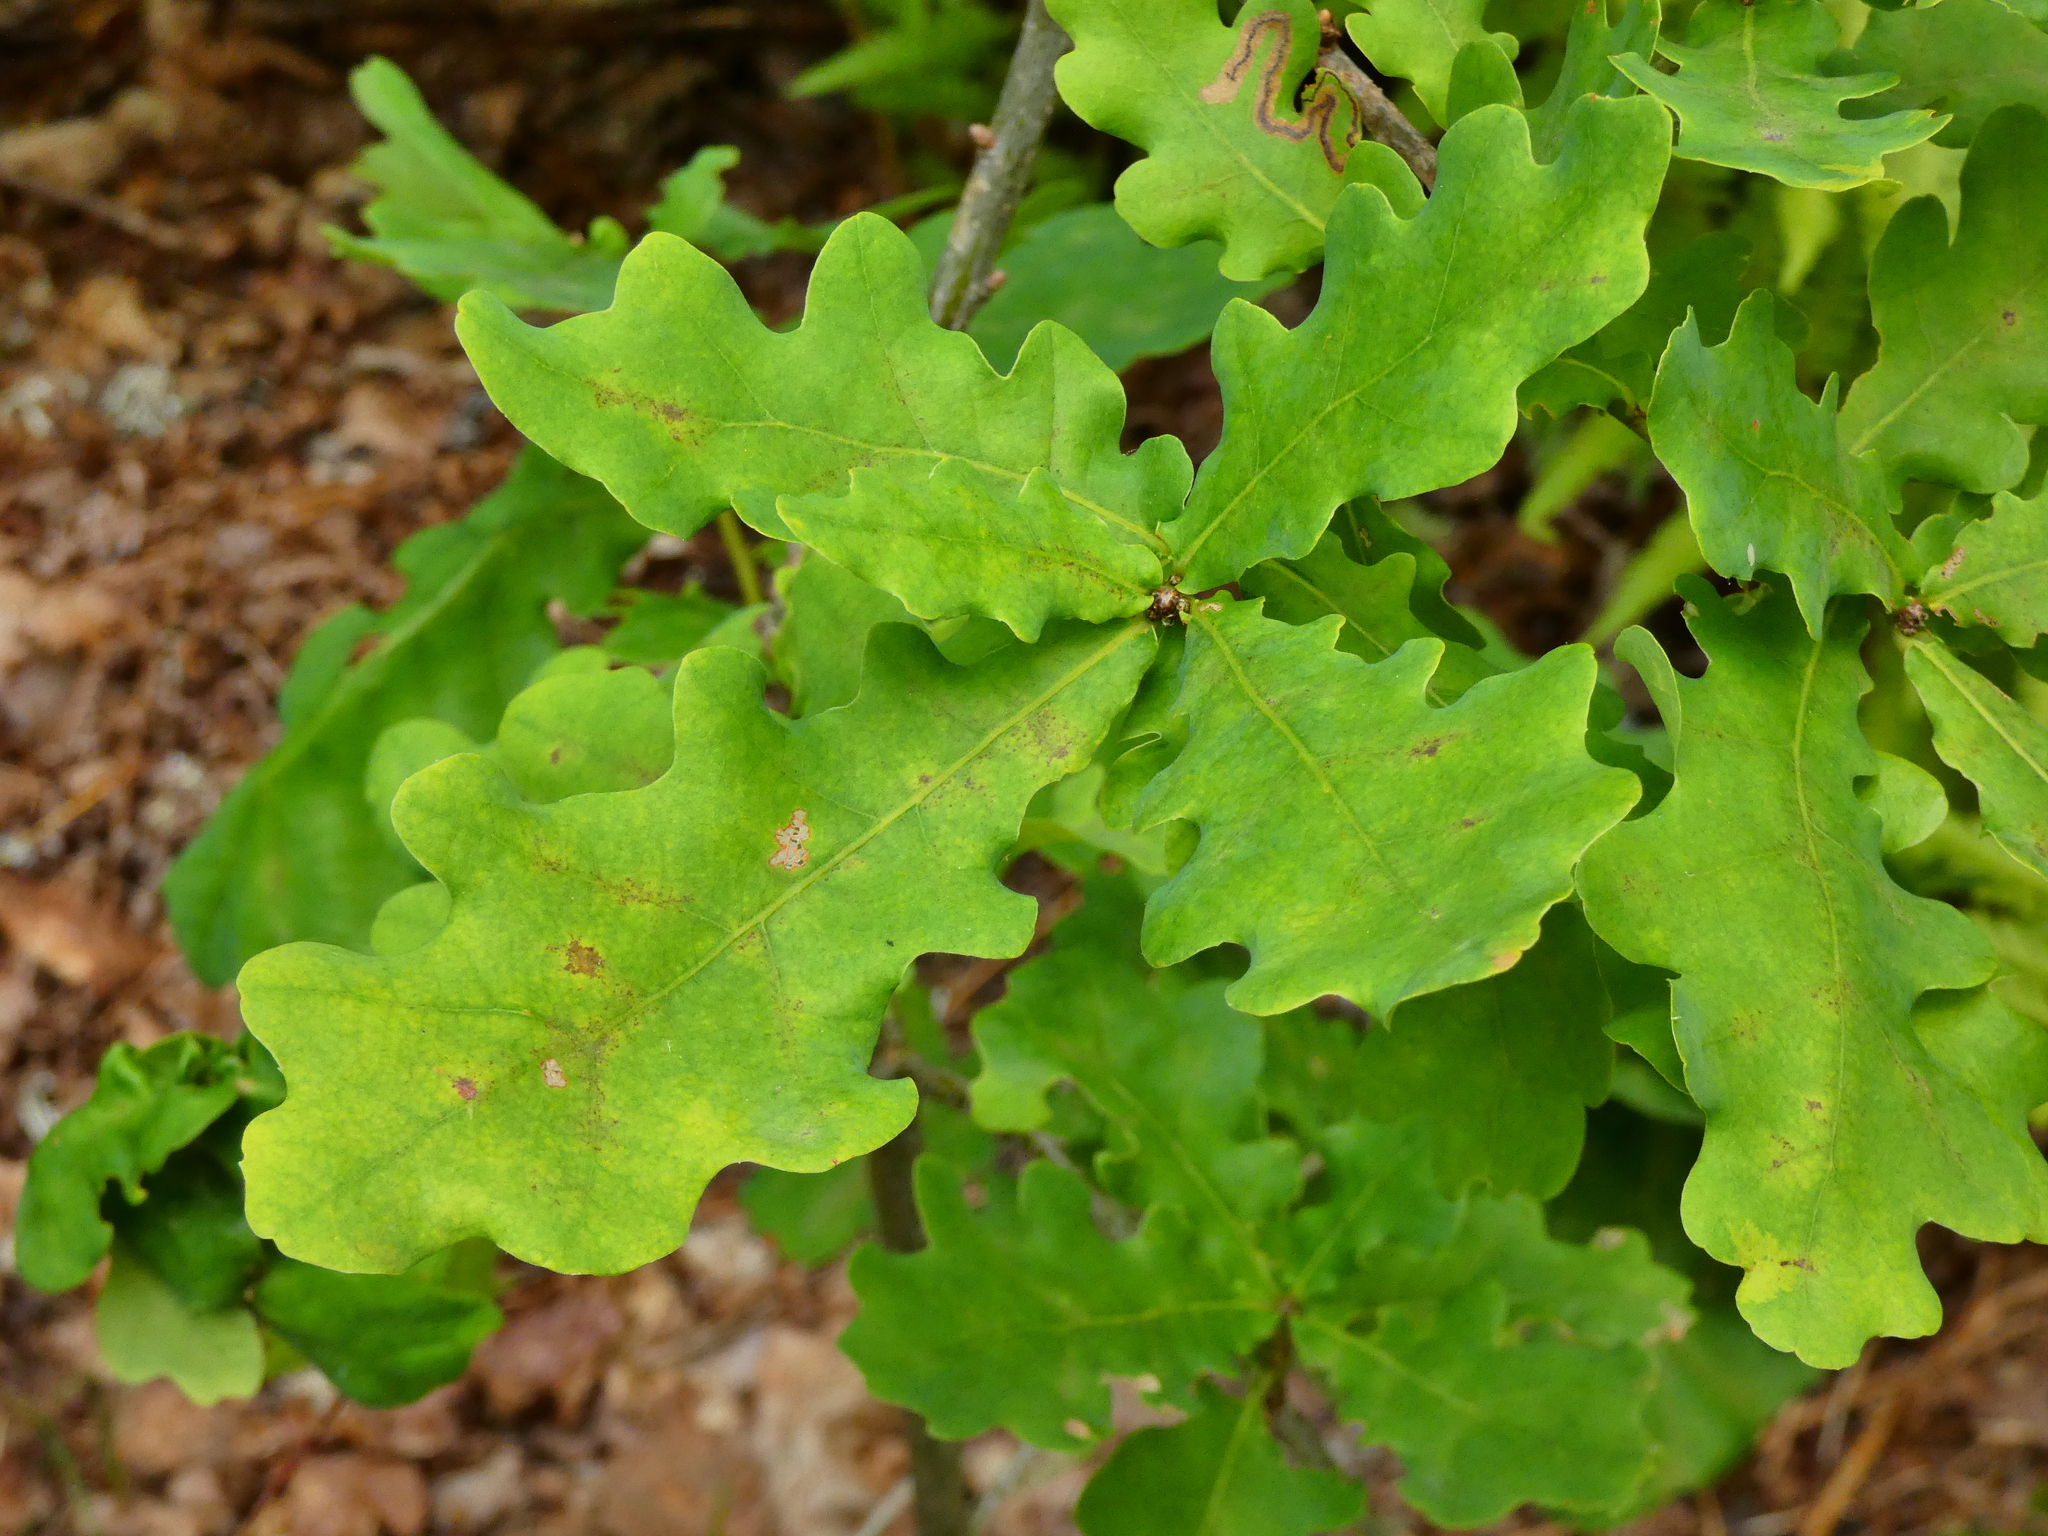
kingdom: Plantae
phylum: Tracheophyta
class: Magnoliopsida
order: Fagales
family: Fagaceae
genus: Quercus
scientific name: Quercus robur
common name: Pedunculate oak
